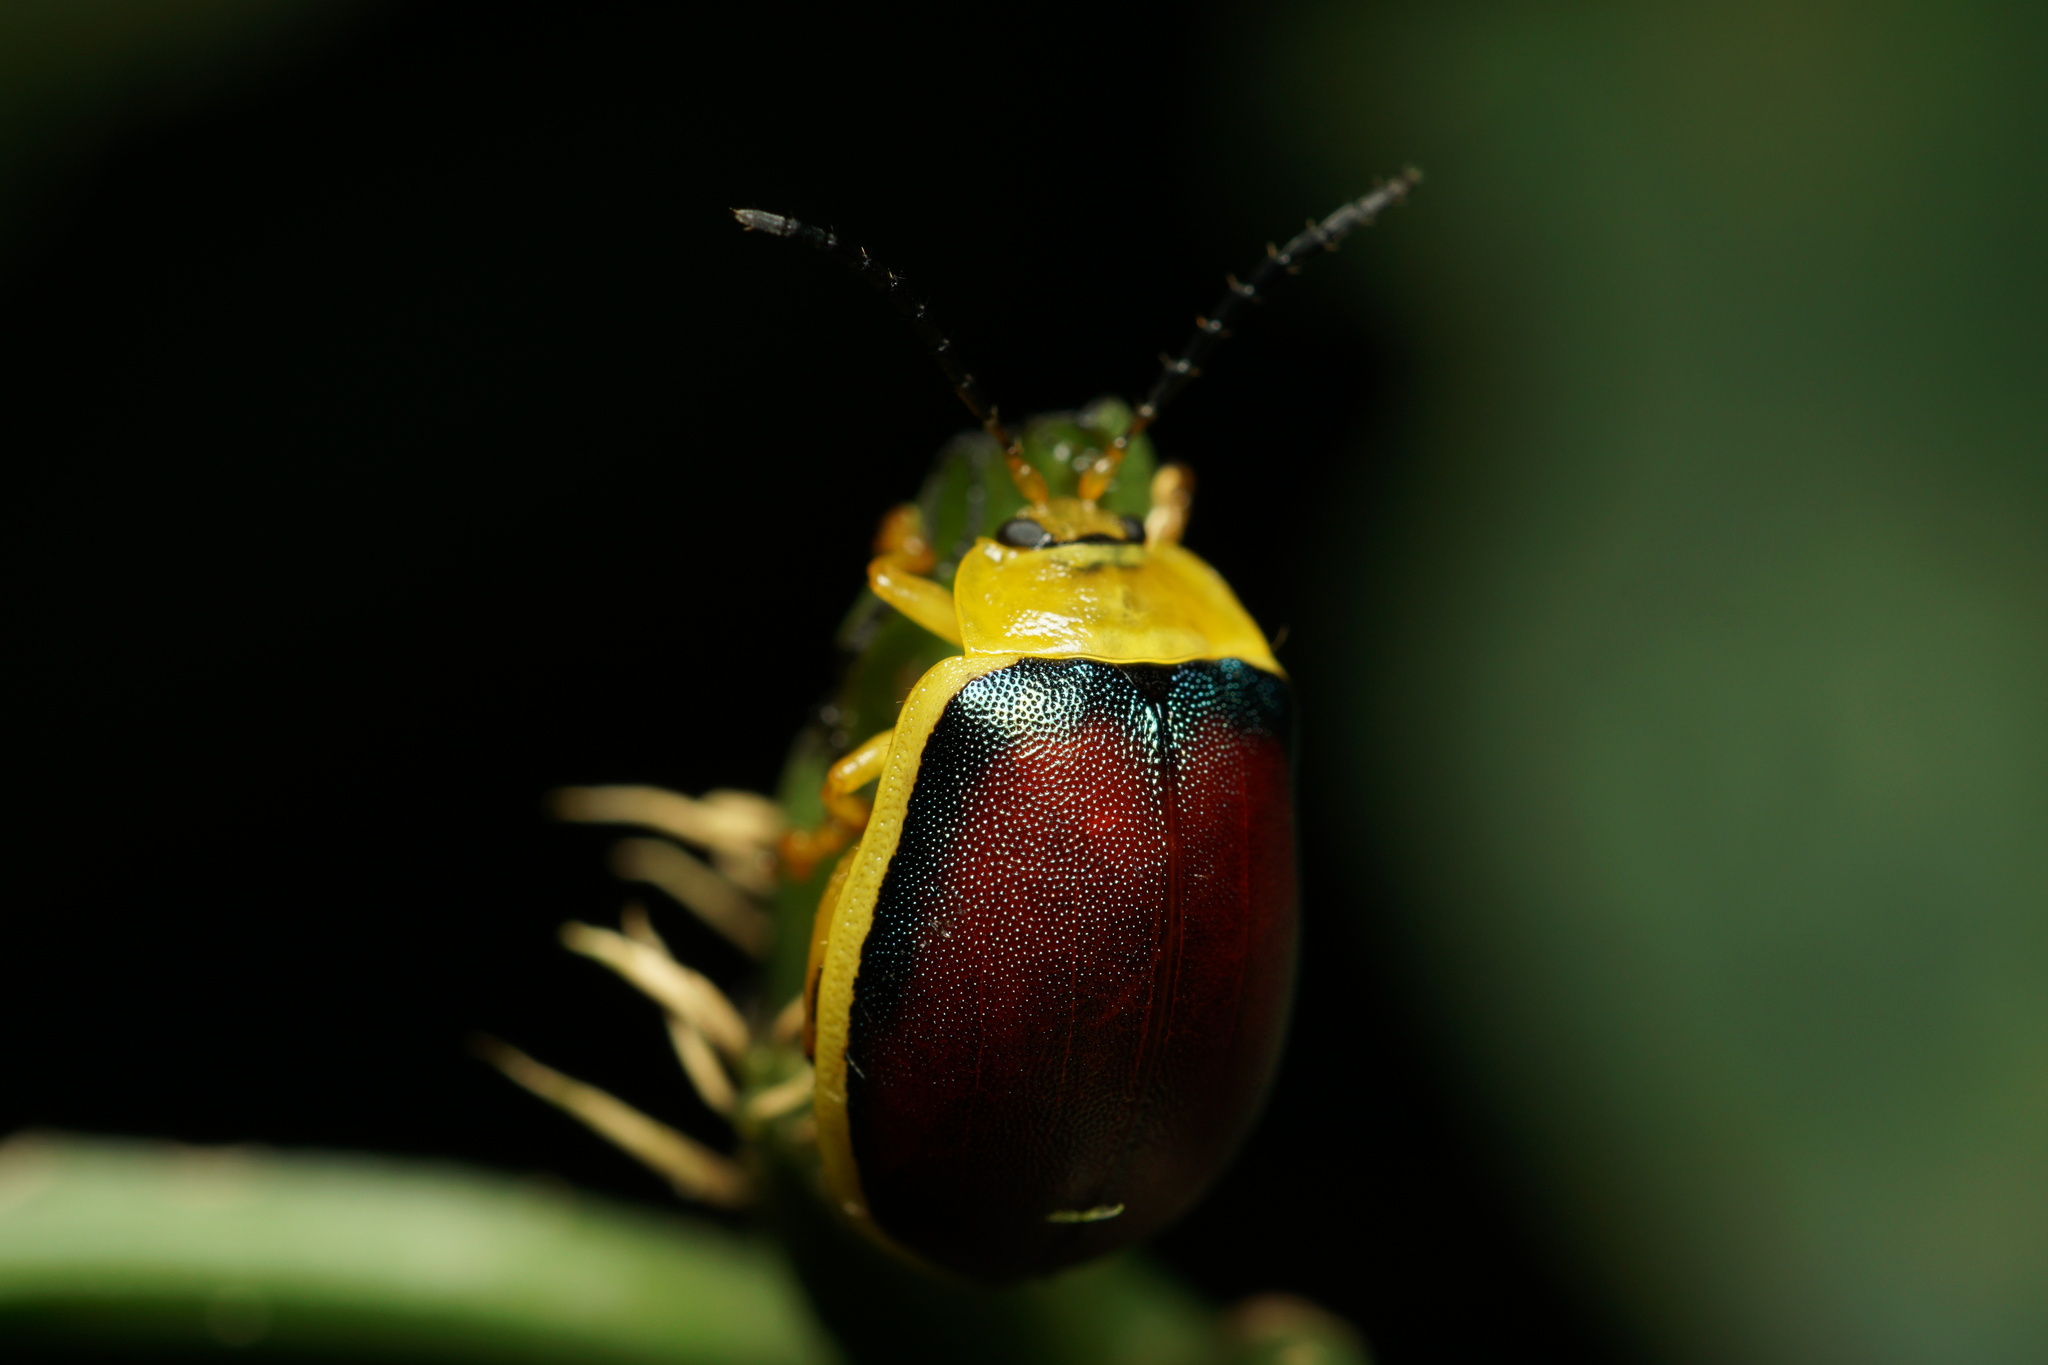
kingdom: Animalia
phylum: Arthropoda
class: Insecta
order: Coleoptera
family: Chrysomelidae
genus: Paranaita
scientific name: Paranaita
